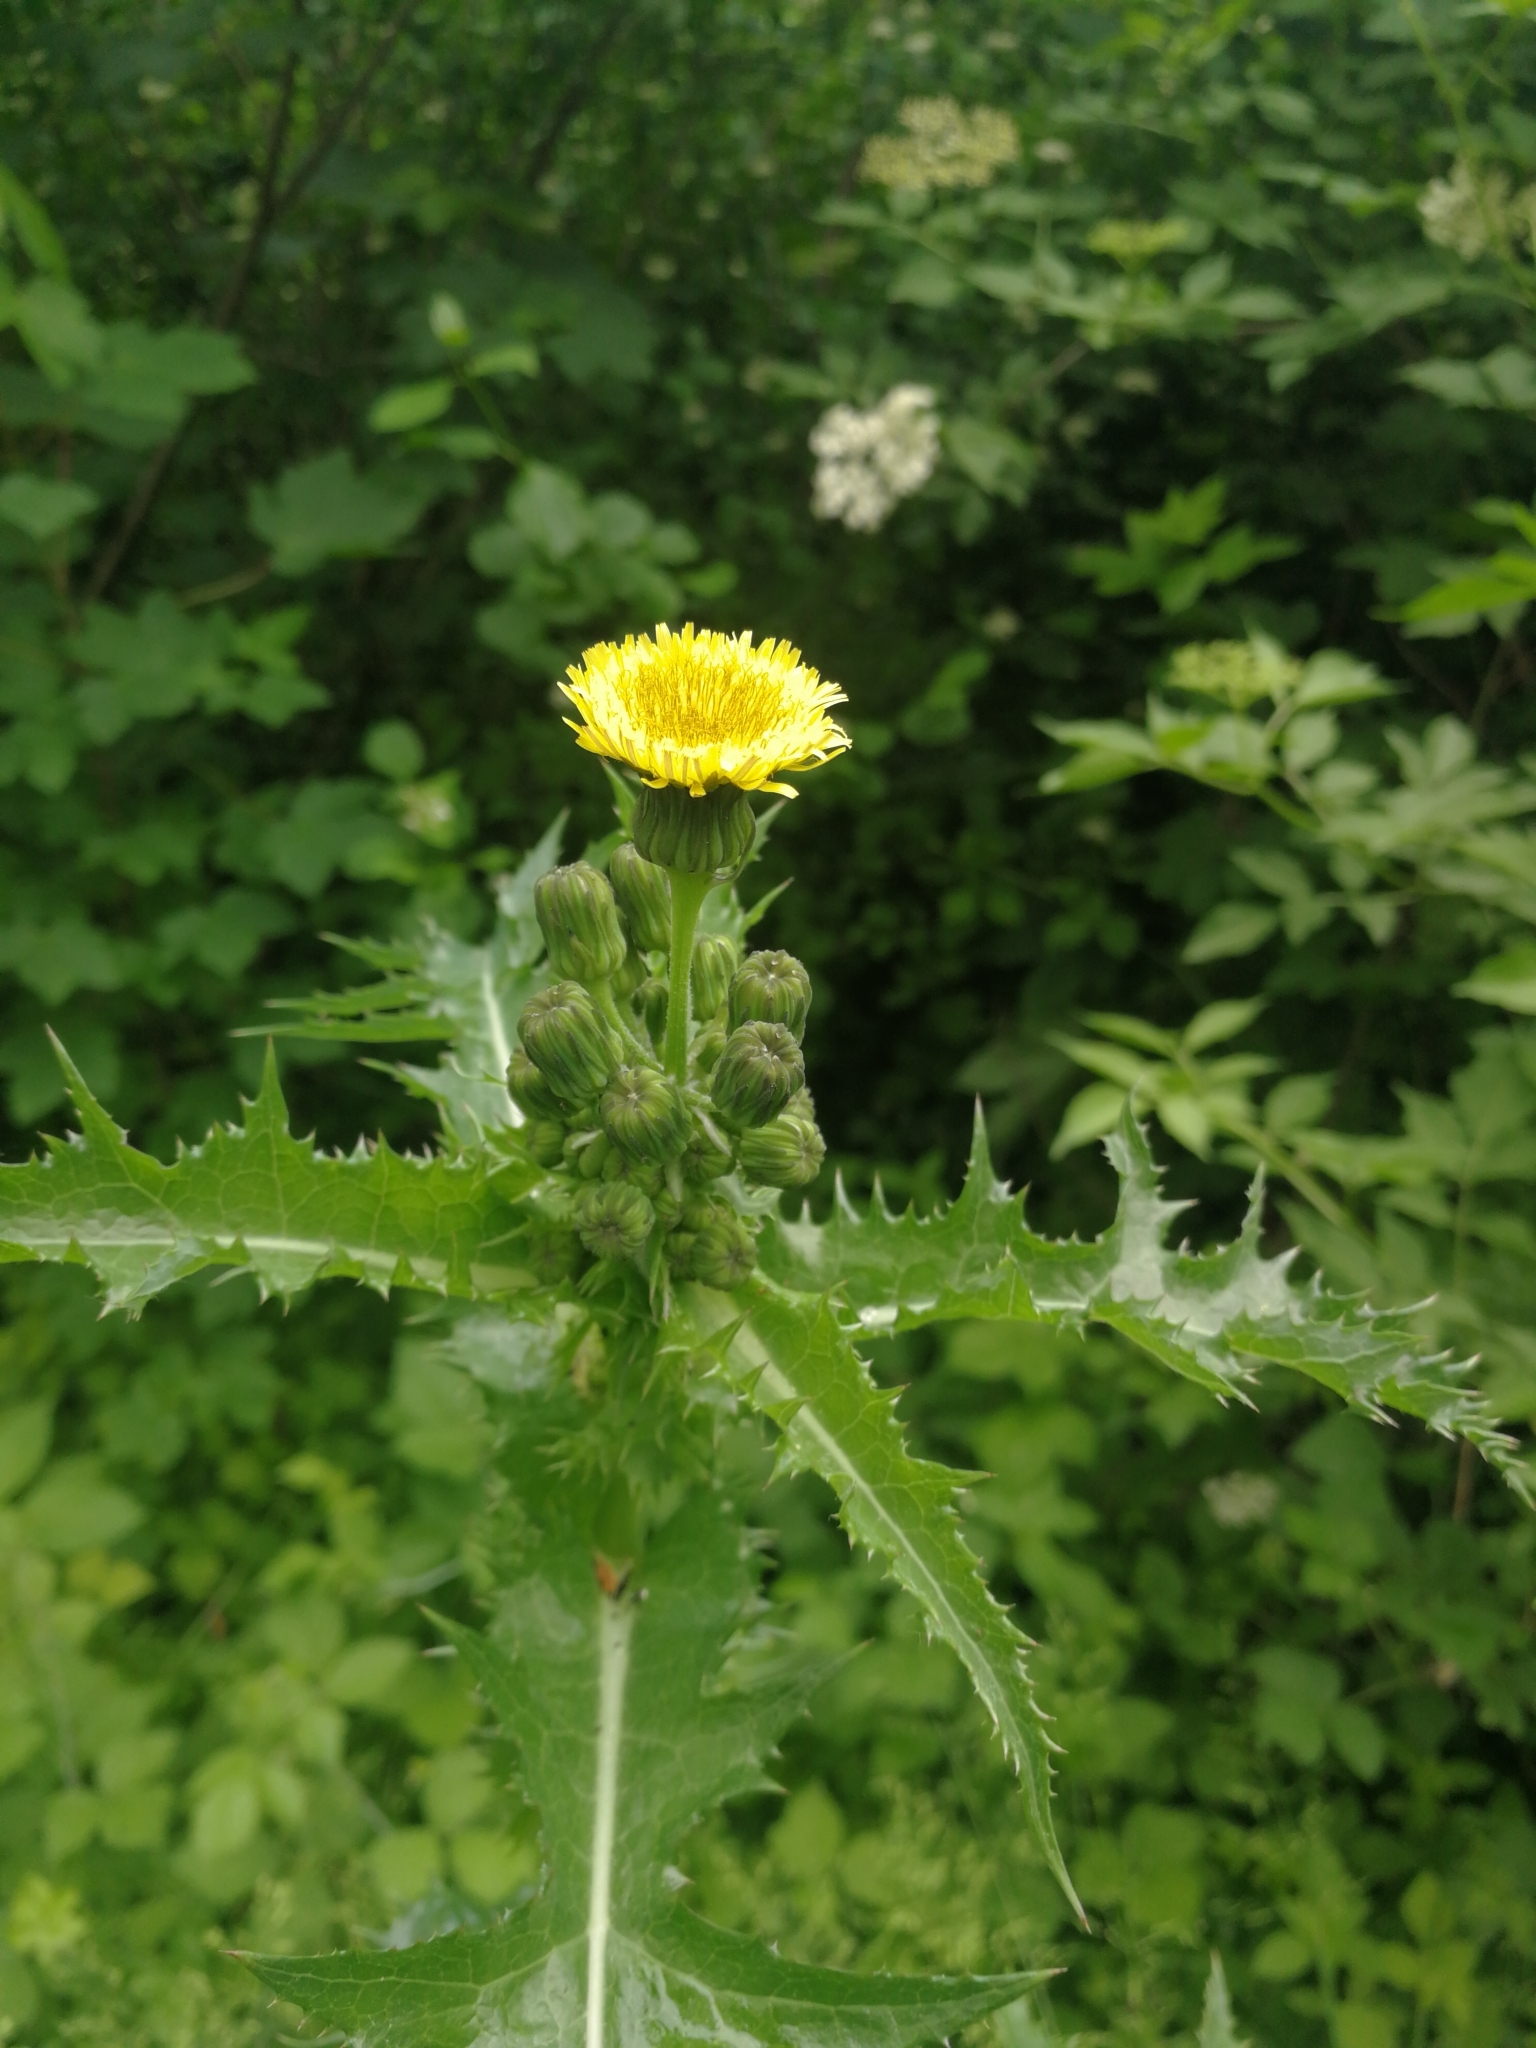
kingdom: Plantae
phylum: Tracheophyta
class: Magnoliopsida
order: Asterales
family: Asteraceae
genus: Sonchus
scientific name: Sonchus asper
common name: Prickly sow-thistle
